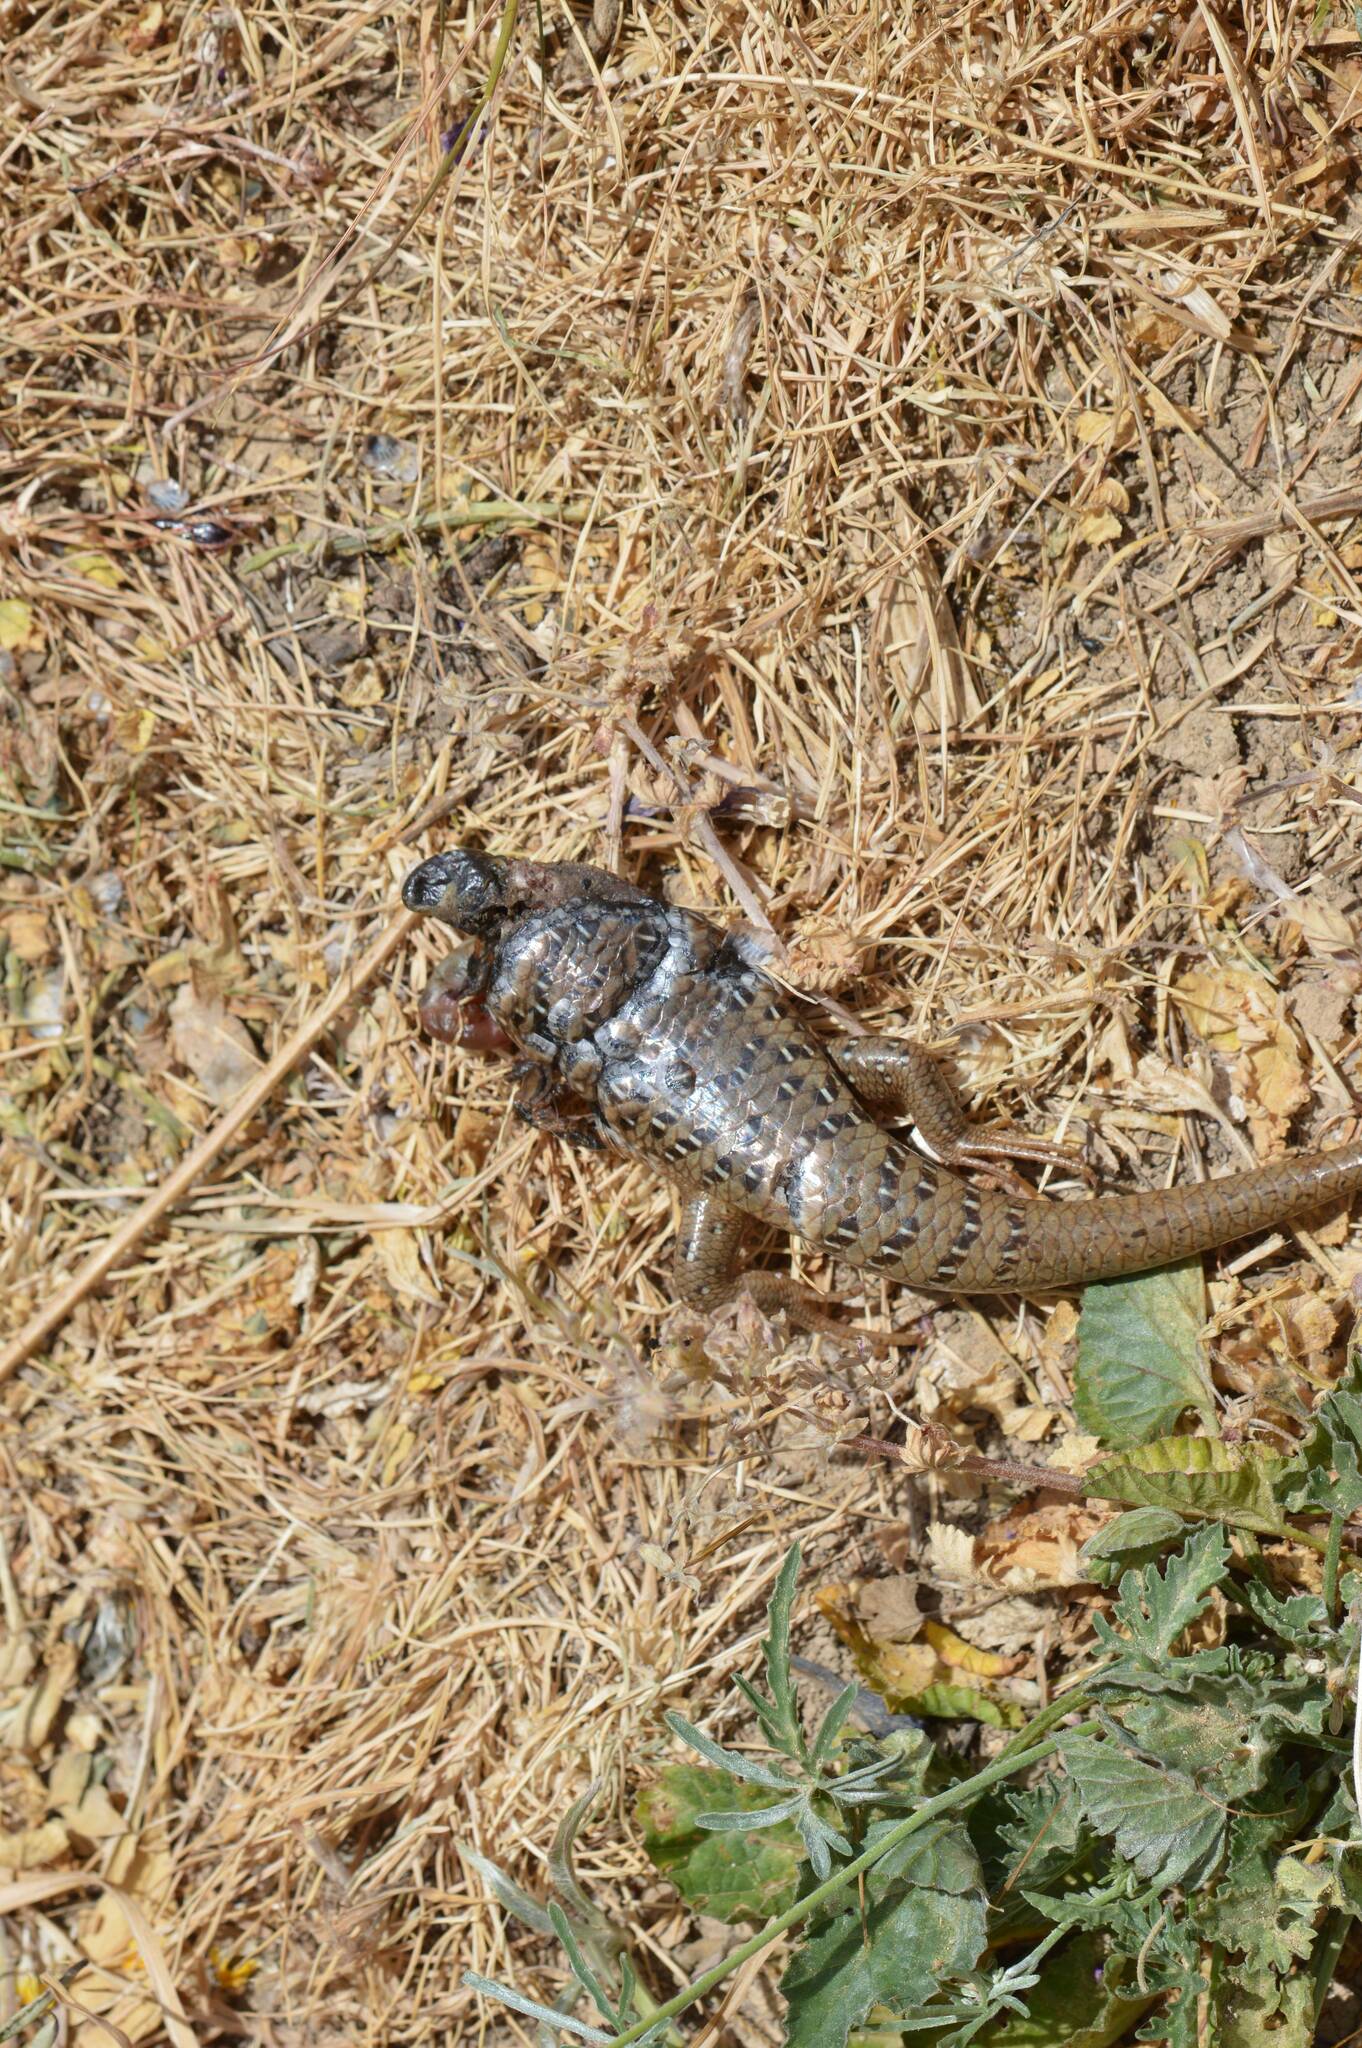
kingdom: Animalia
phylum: Chordata
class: Squamata
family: Scincidae
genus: Chalcides
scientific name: Chalcides ocellatus
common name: Ocellated skink
